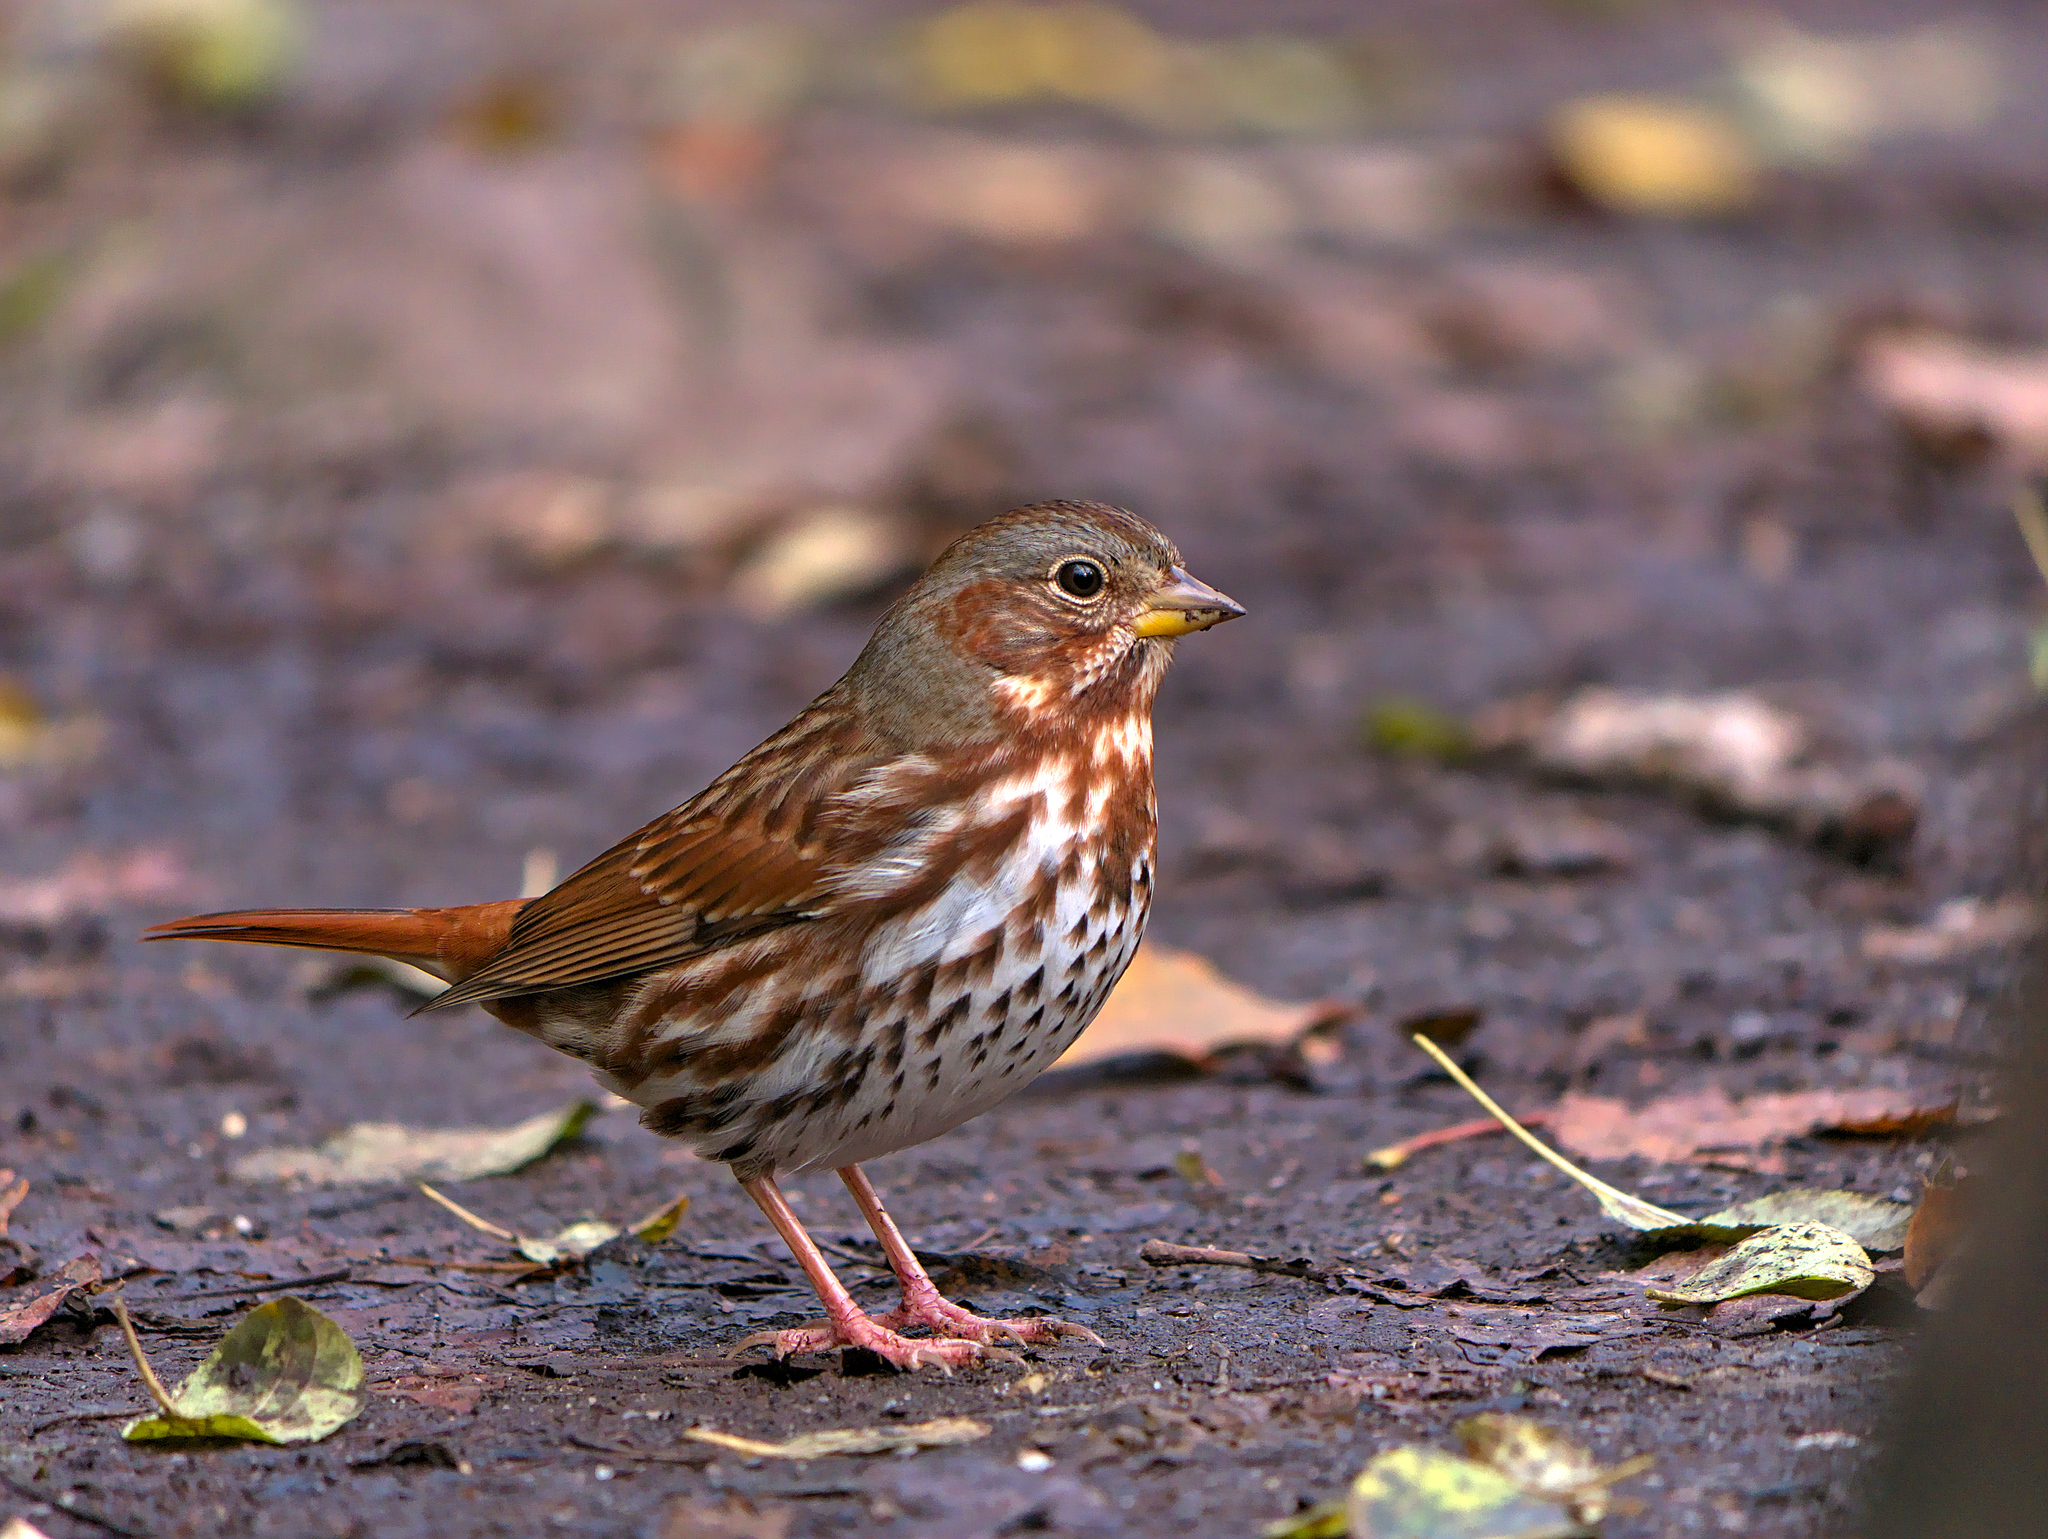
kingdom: Animalia
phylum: Chordata
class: Aves
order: Passeriformes
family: Passerellidae
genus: Passerella
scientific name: Passerella iliaca
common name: Fox sparrow
